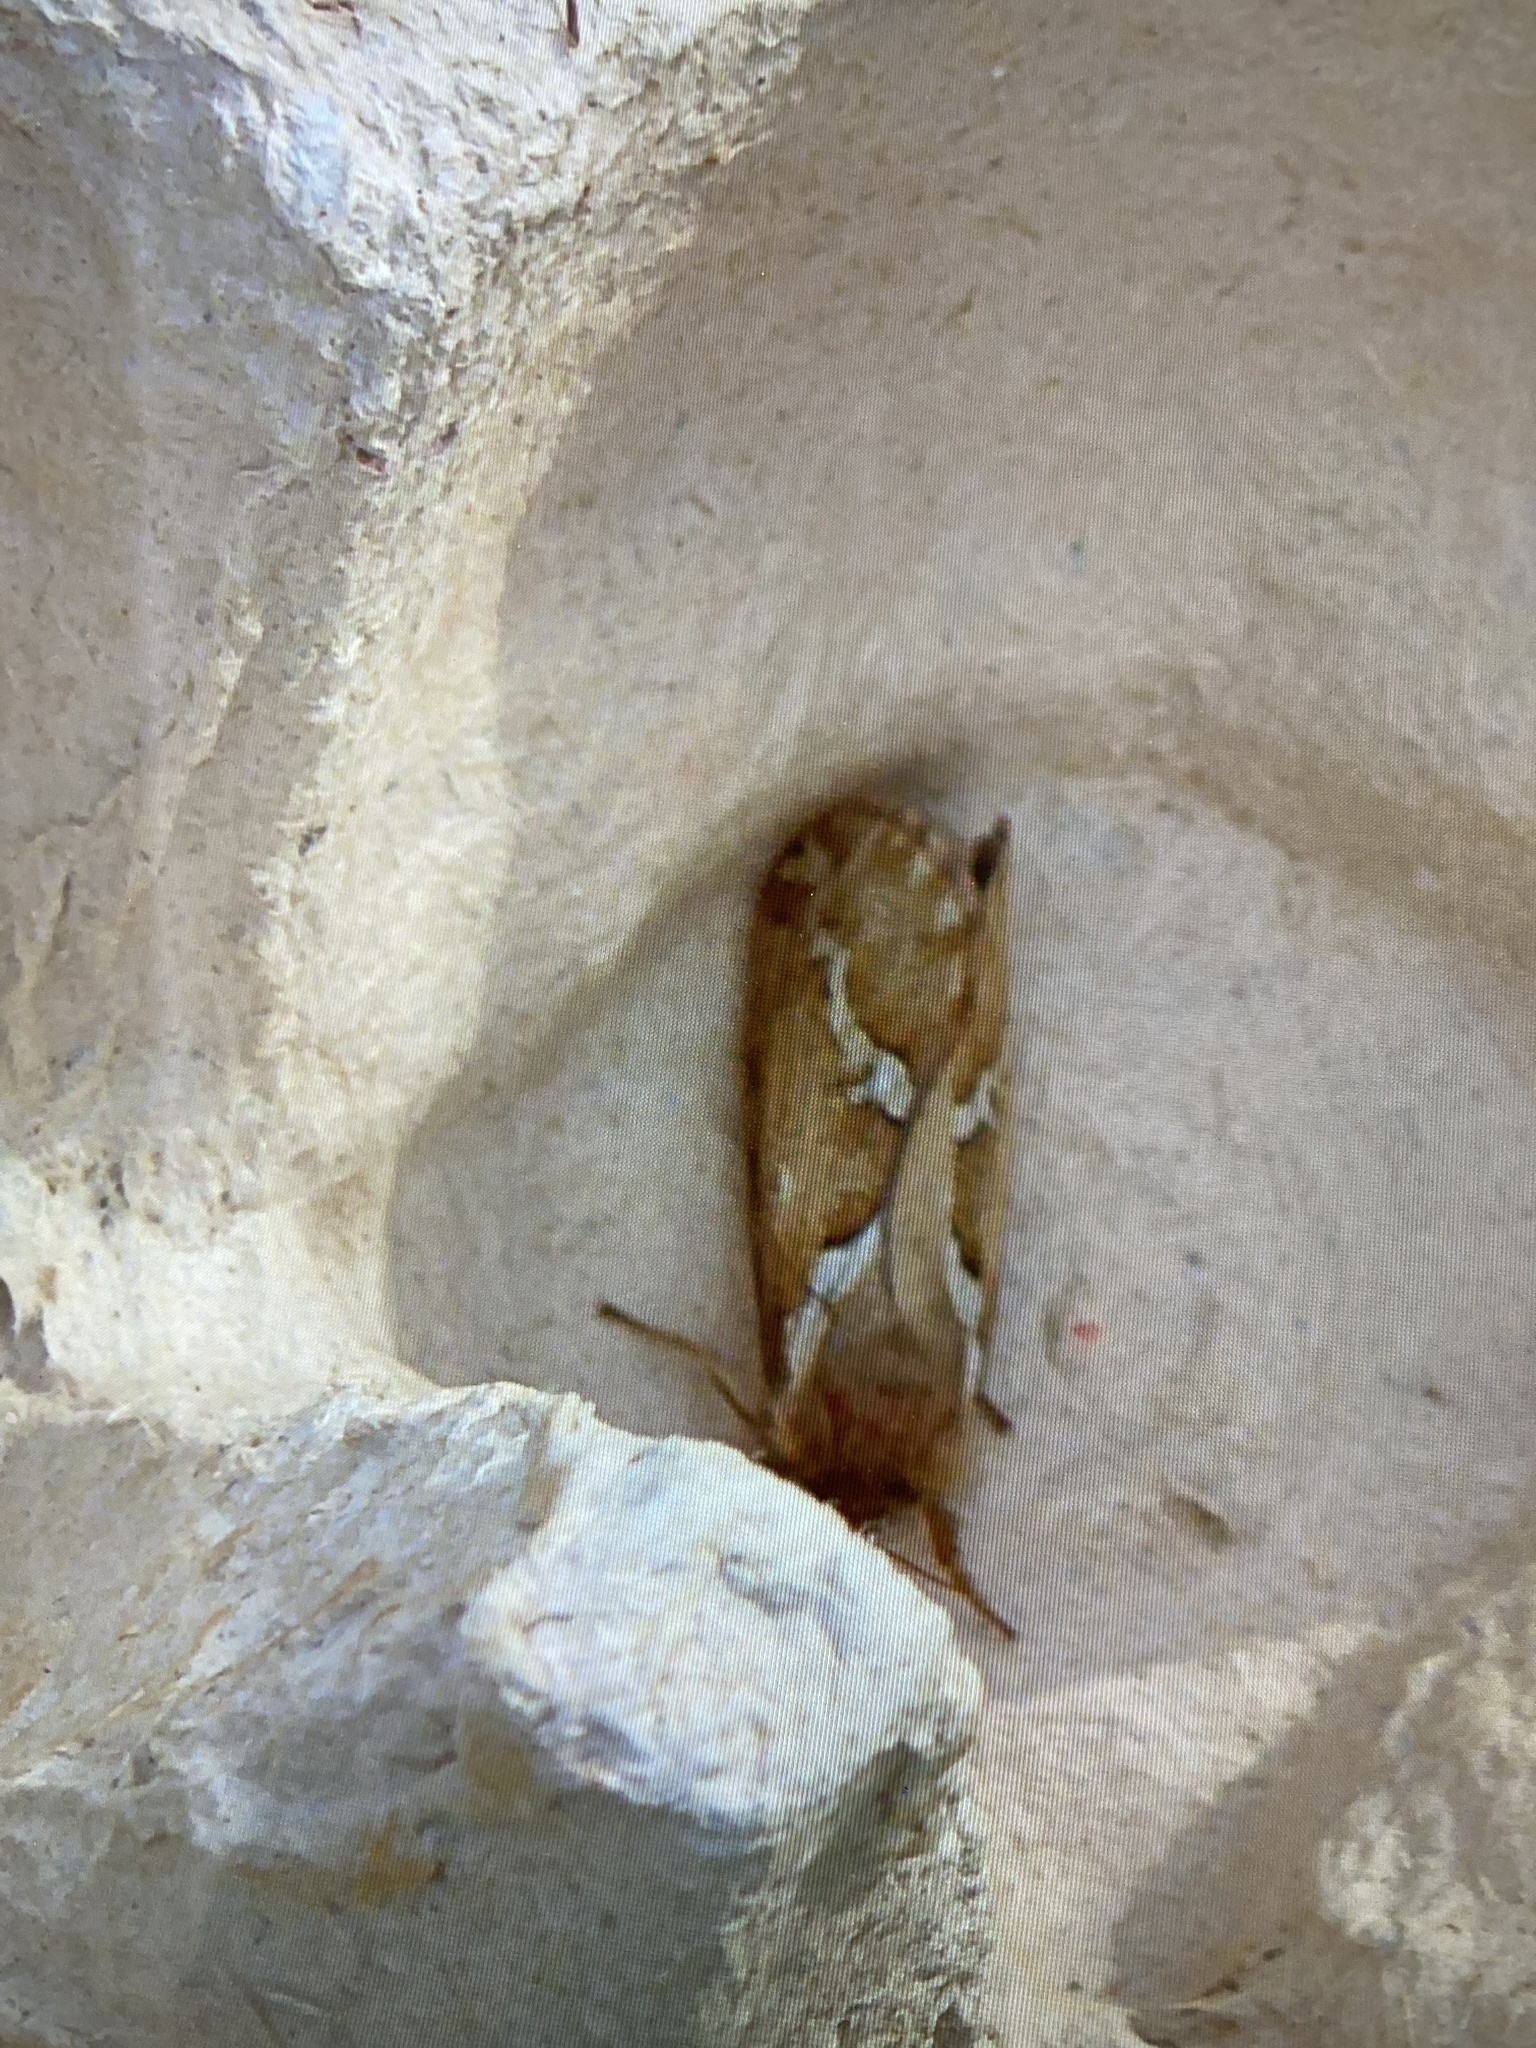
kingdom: Animalia
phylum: Arthropoda
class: Insecta
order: Lepidoptera
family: Hepialidae
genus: Korscheltellus
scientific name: Korscheltellus lupulina
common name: Common swift
